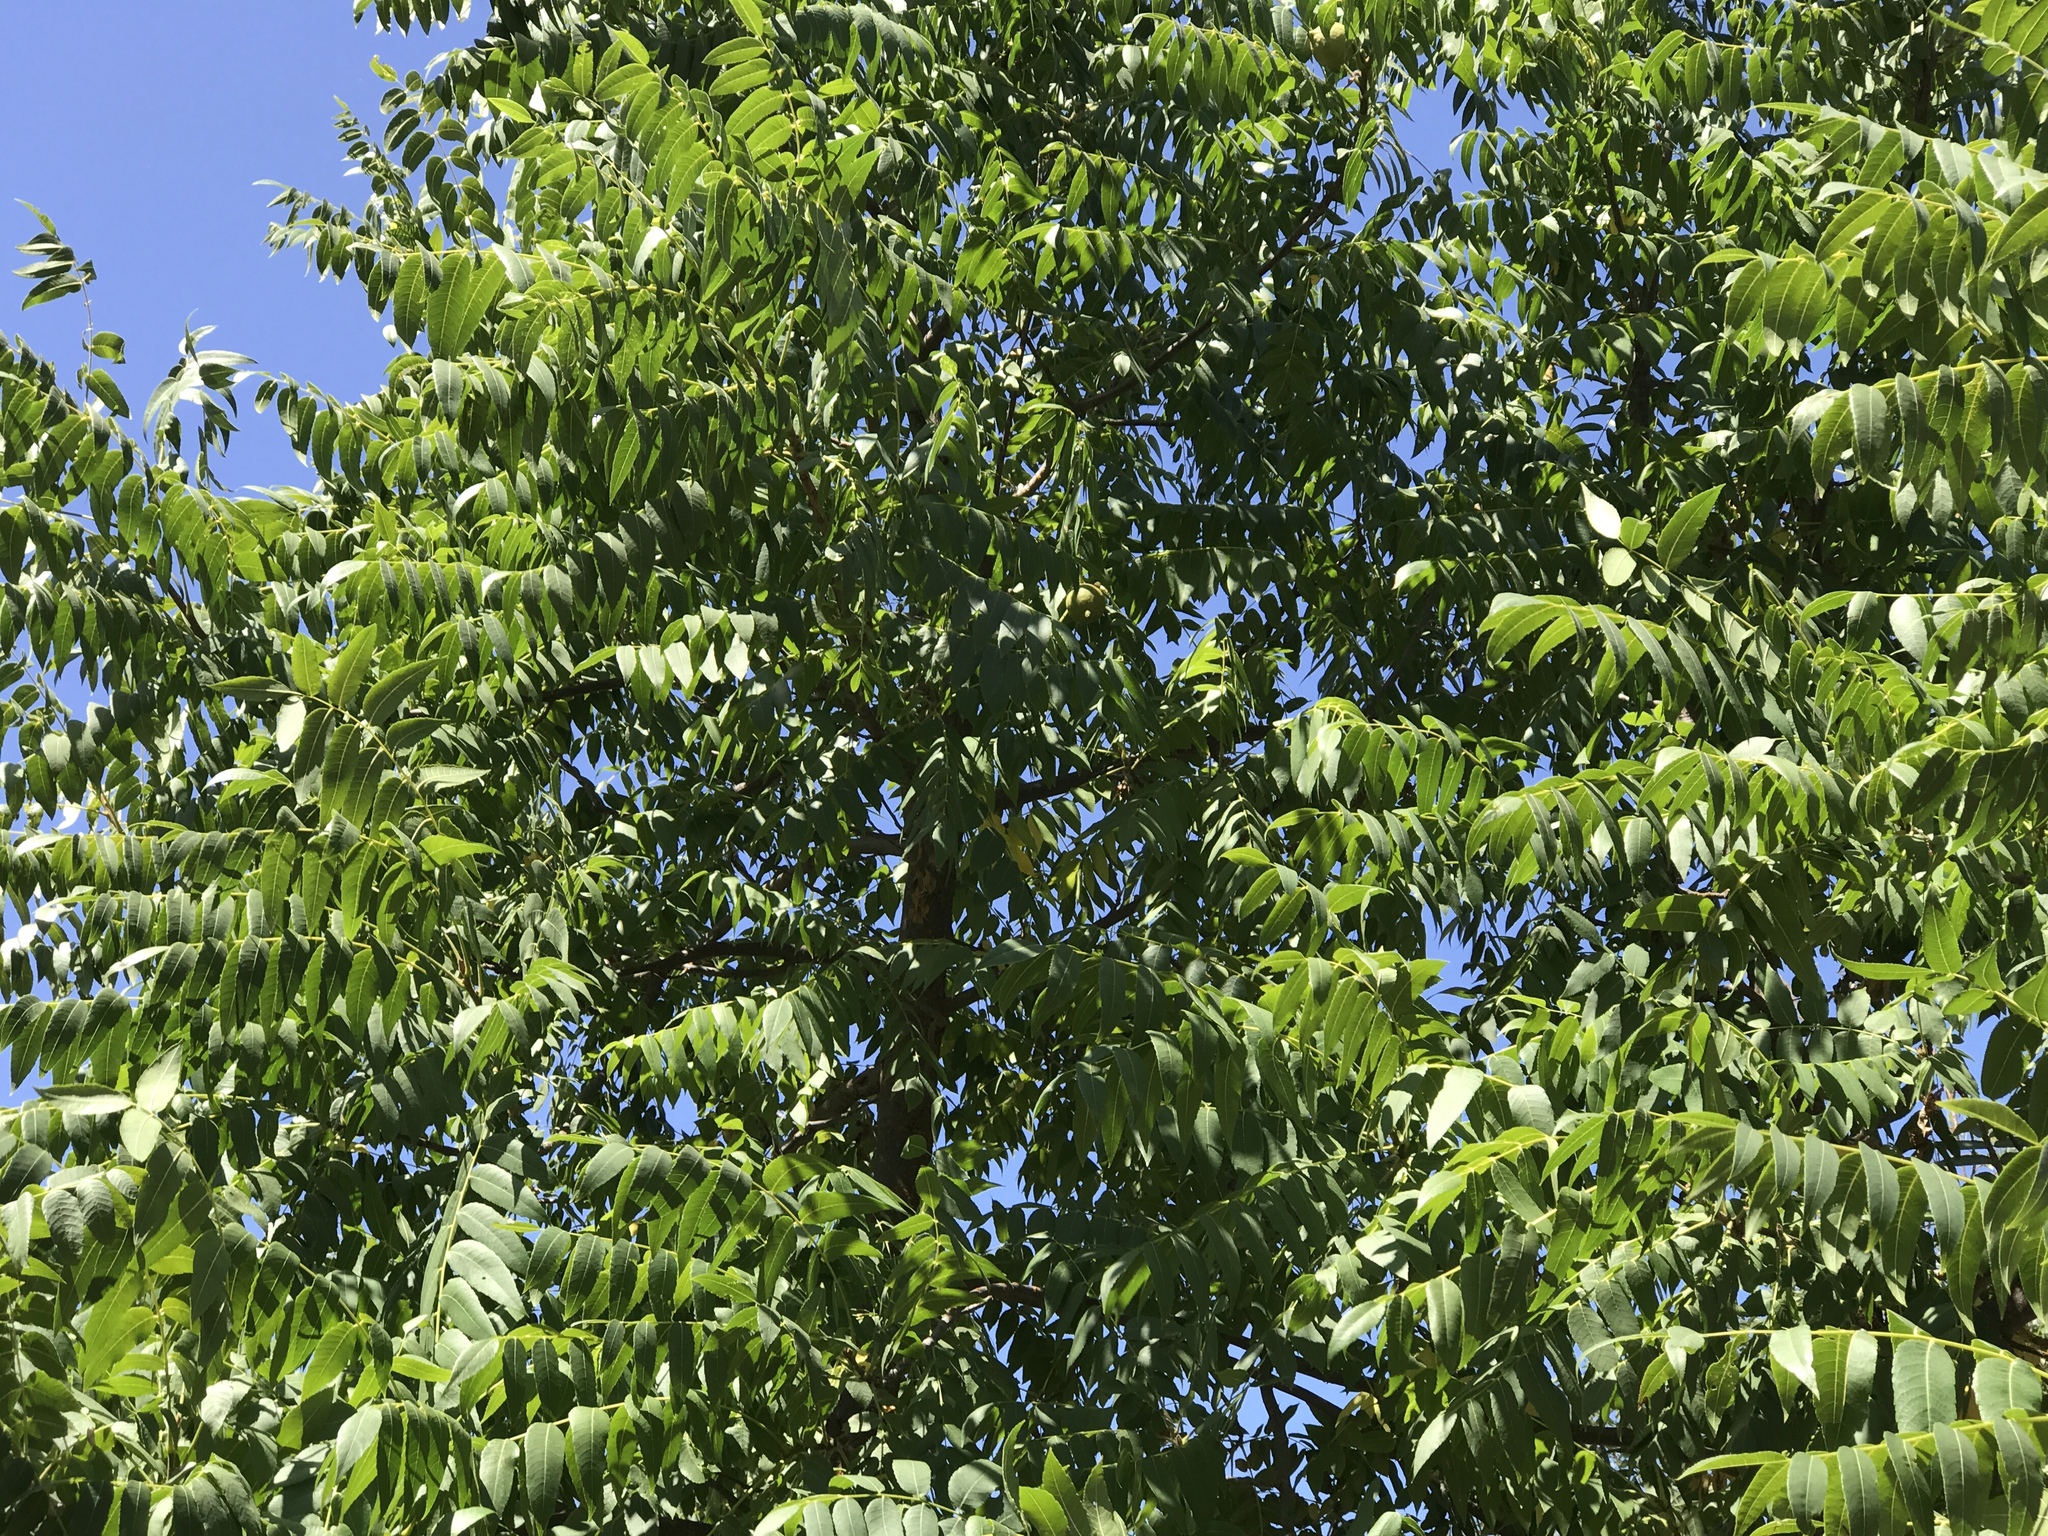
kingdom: Plantae
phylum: Tracheophyta
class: Magnoliopsida
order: Fagales
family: Juglandaceae
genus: Juglans
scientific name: Juglans hindsii
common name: Northern california black walnut
